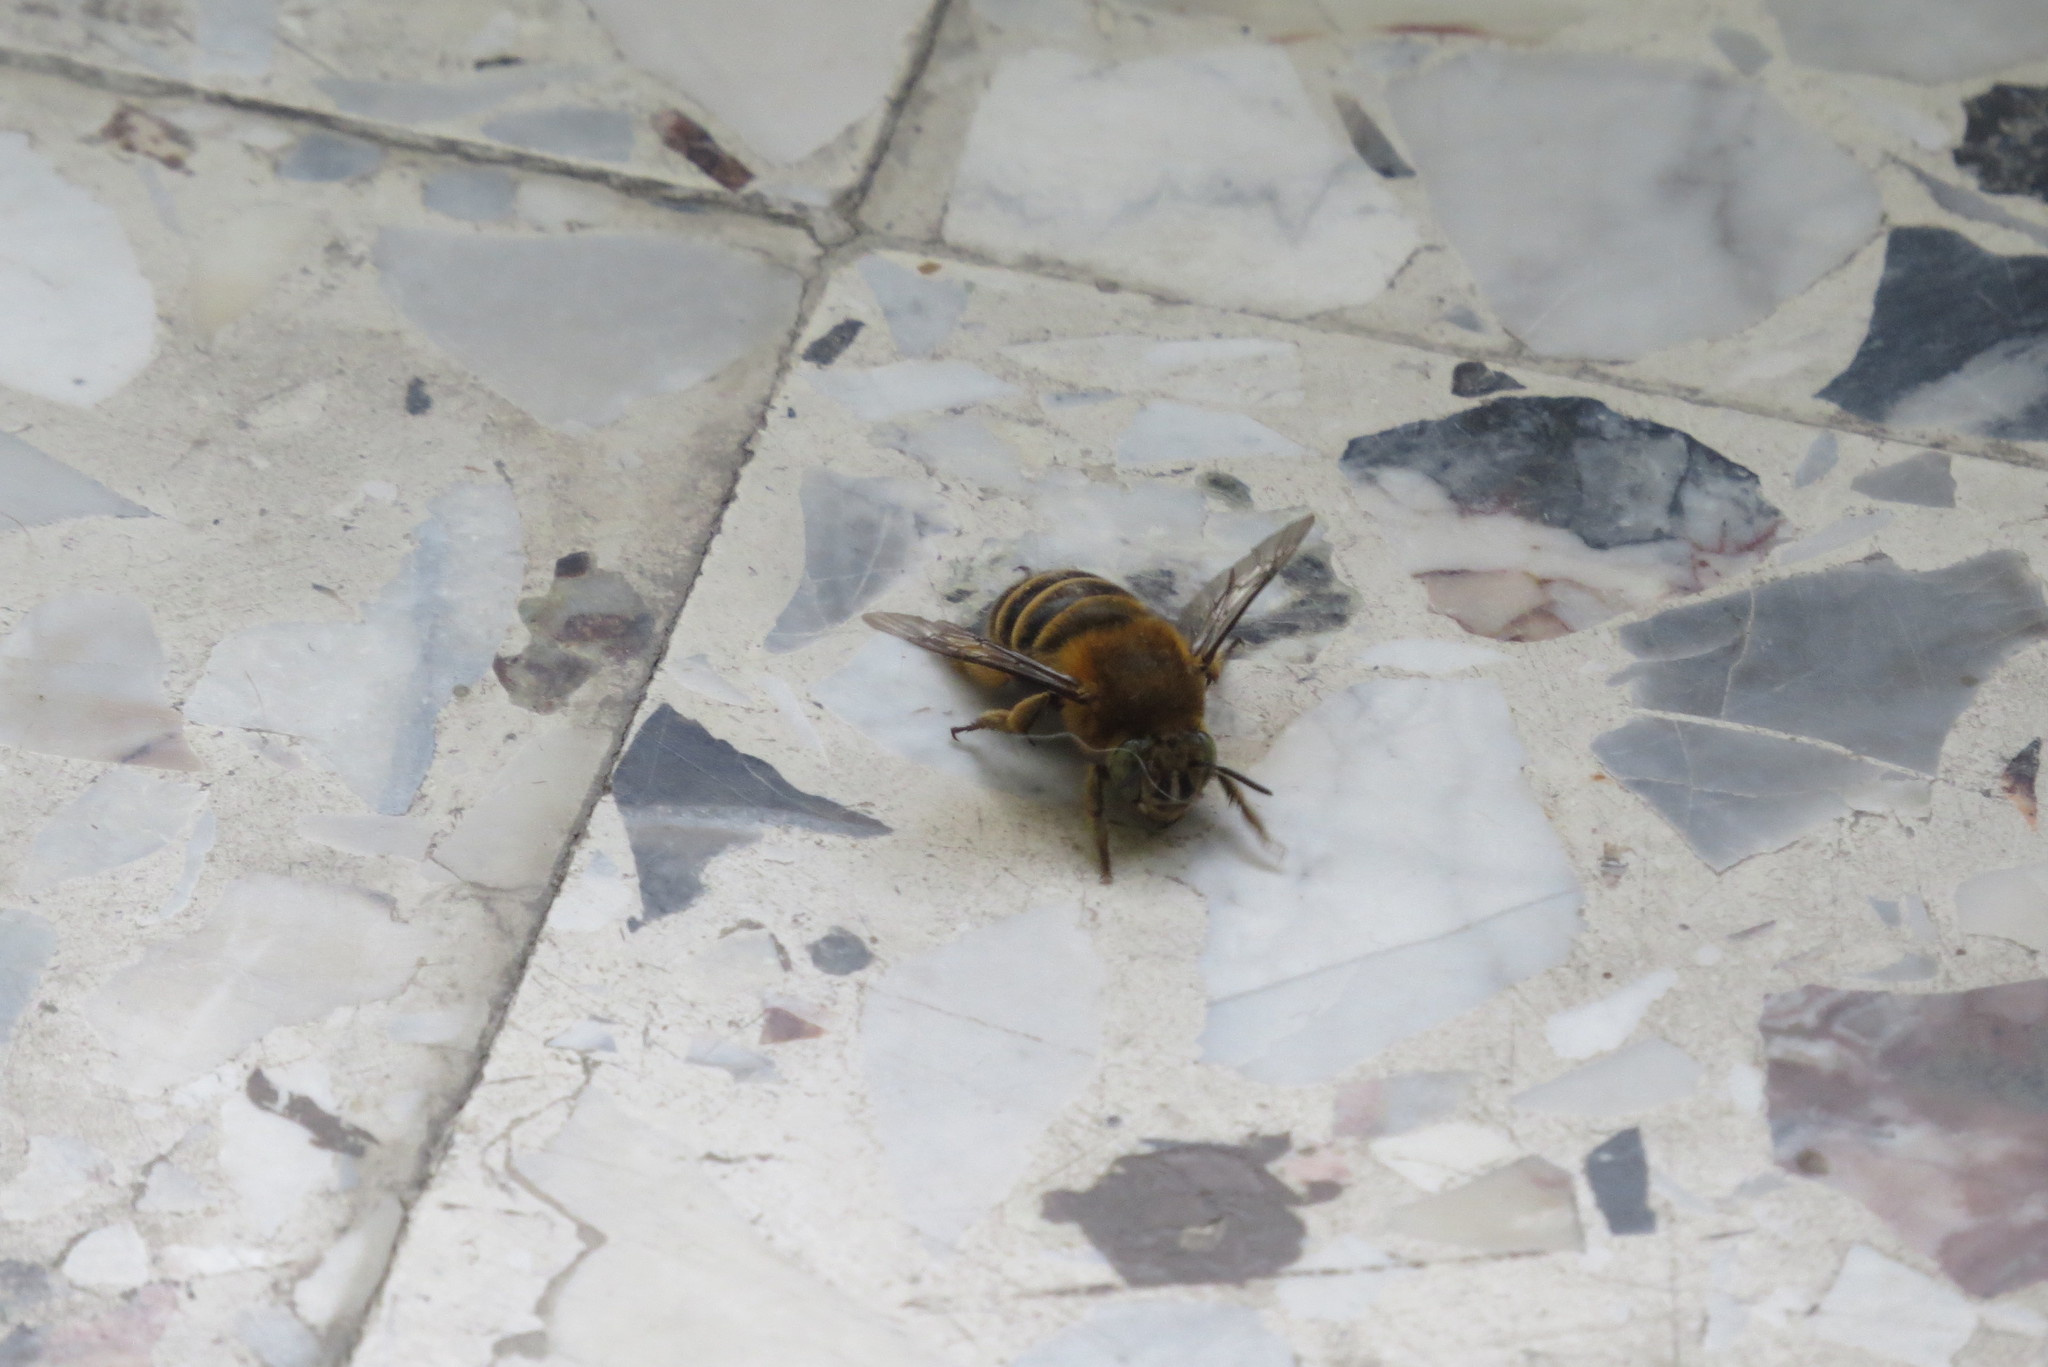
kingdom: Animalia
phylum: Arthropoda
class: Insecta
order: Hymenoptera
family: Apidae
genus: Amegilla
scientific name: Amegilla garrula
